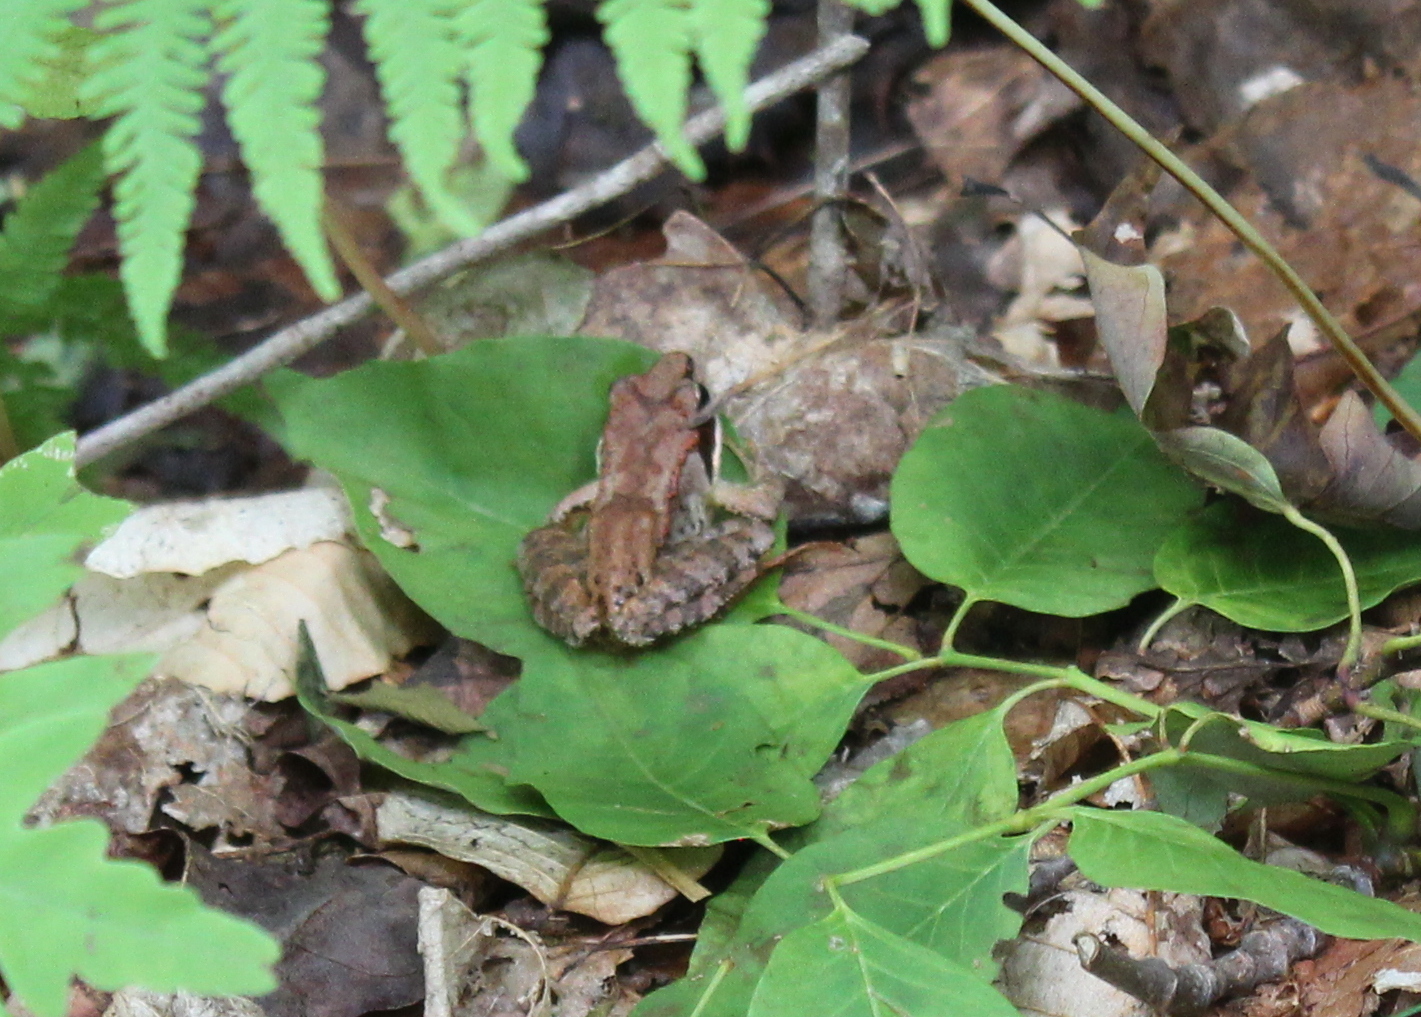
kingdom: Animalia
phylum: Chordata
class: Amphibia
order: Anura
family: Ranidae
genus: Lithobates
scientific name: Lithobates sylvaticus
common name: Wood frog
